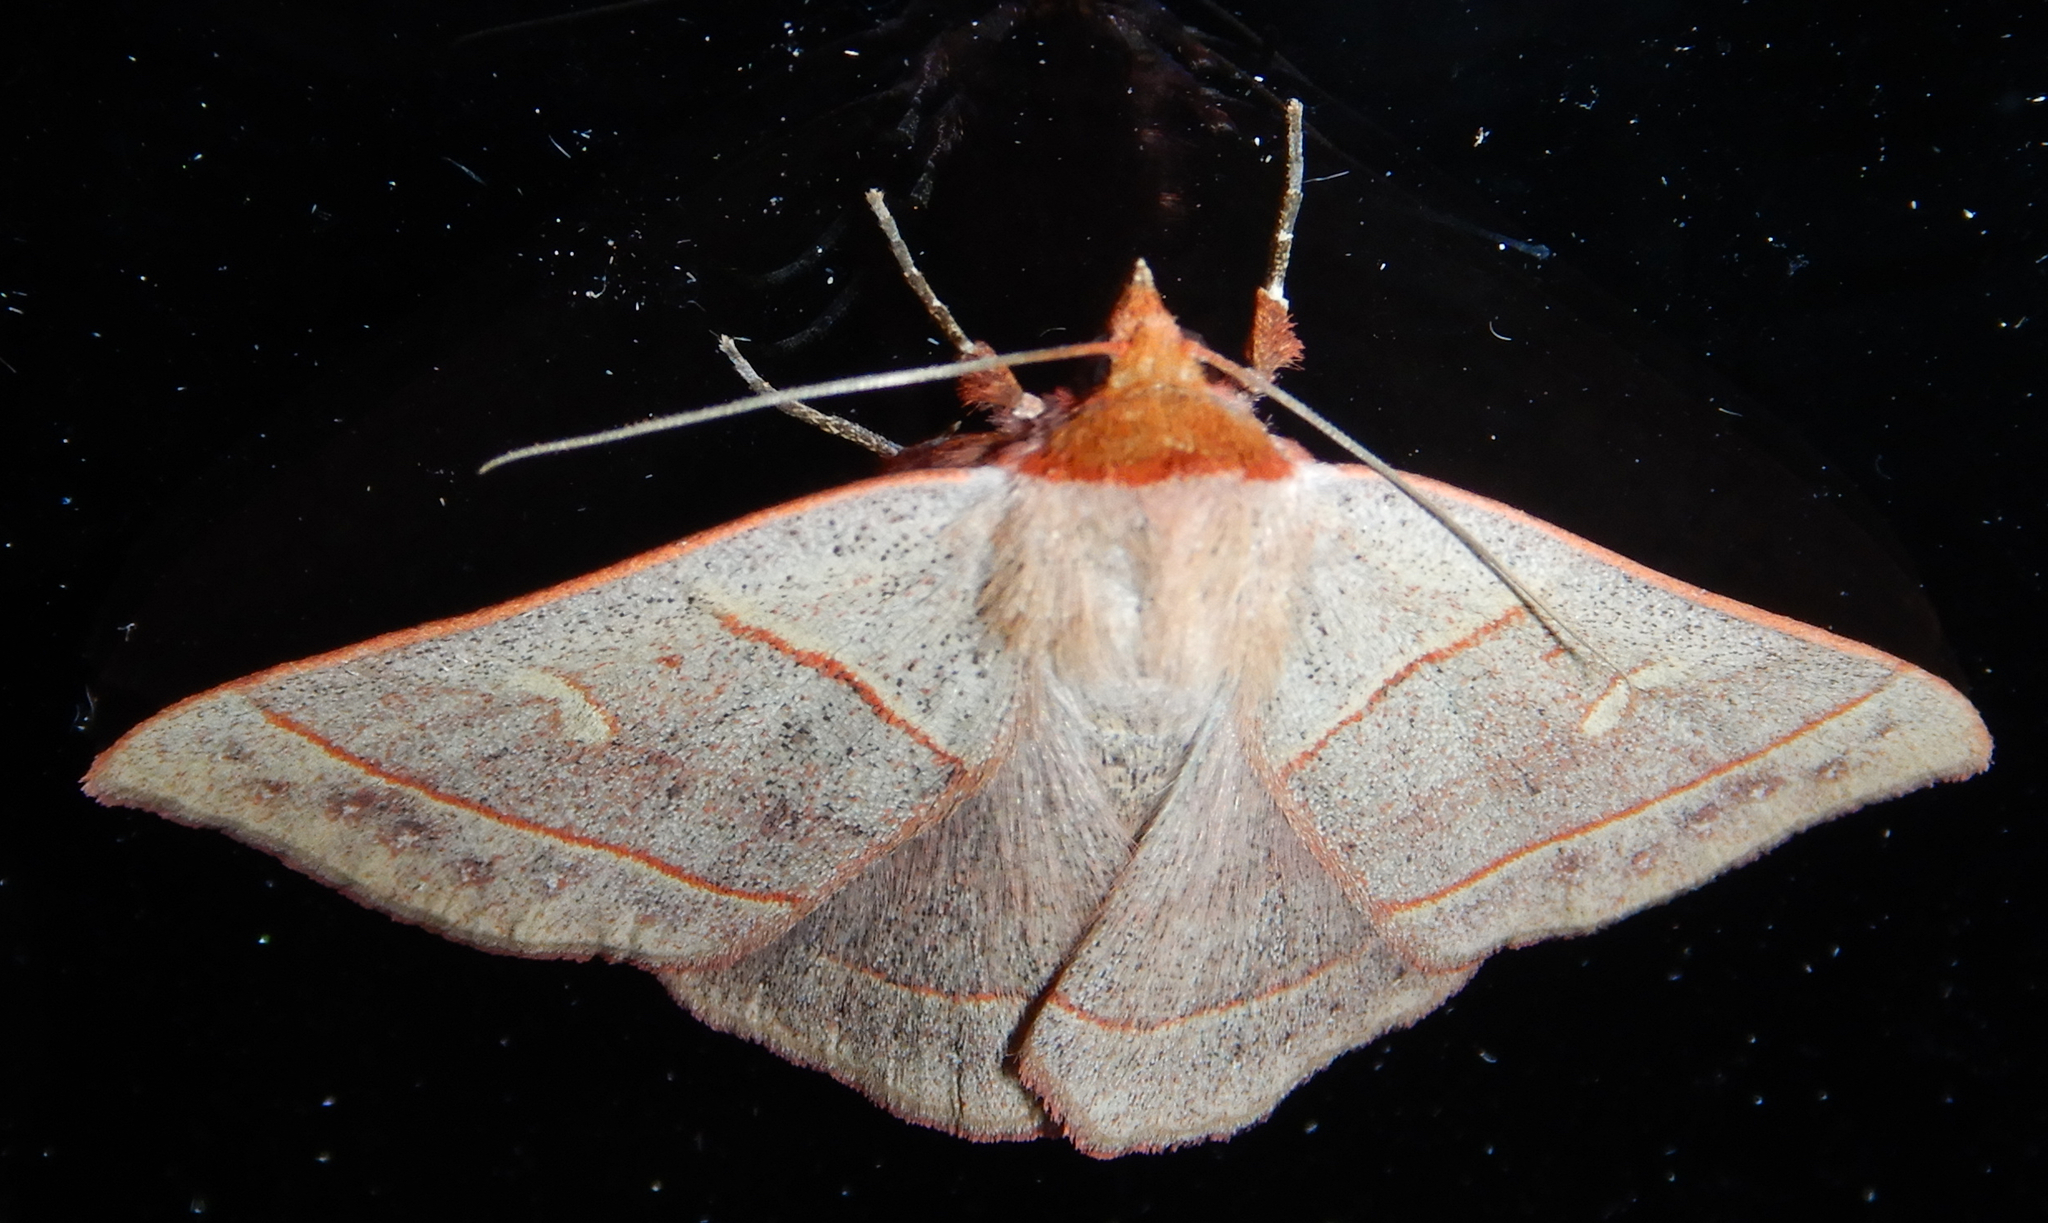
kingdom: Animalia
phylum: Arthropoda
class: Insecta
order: Lepidoptera
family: Erebidae
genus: Panopoda
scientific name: Panopoda rufimargo
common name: Red-lined panopoda moth
